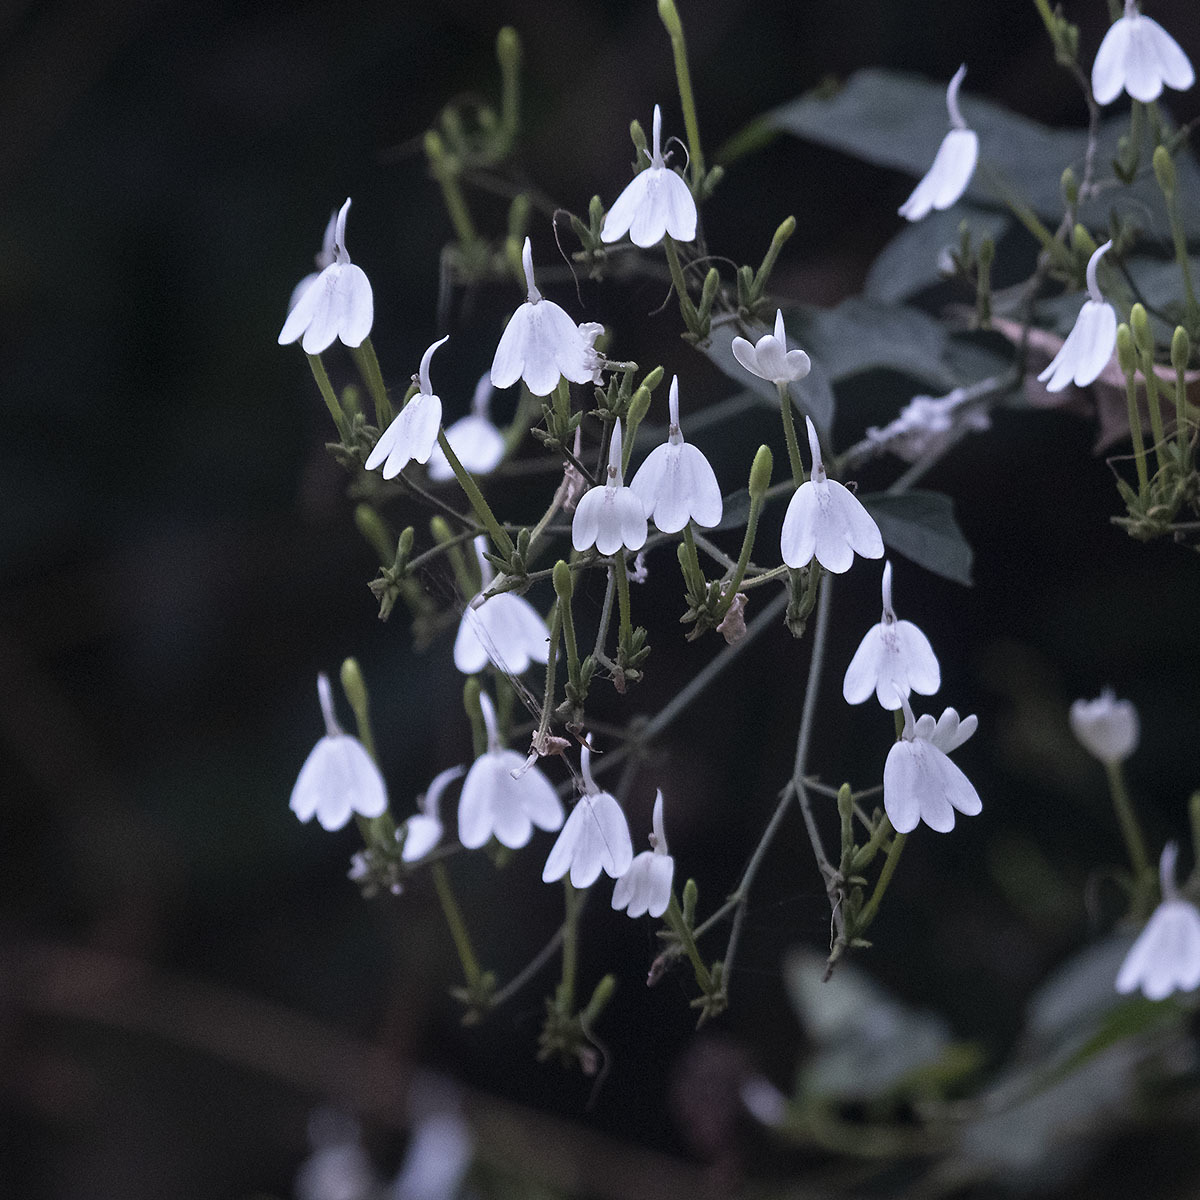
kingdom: Plantae
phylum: Tracheophyta
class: Magnoliopsida
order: Lamiales
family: Acanthaceae
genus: Rhinacanthus
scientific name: Rhinacanthus nasutus
